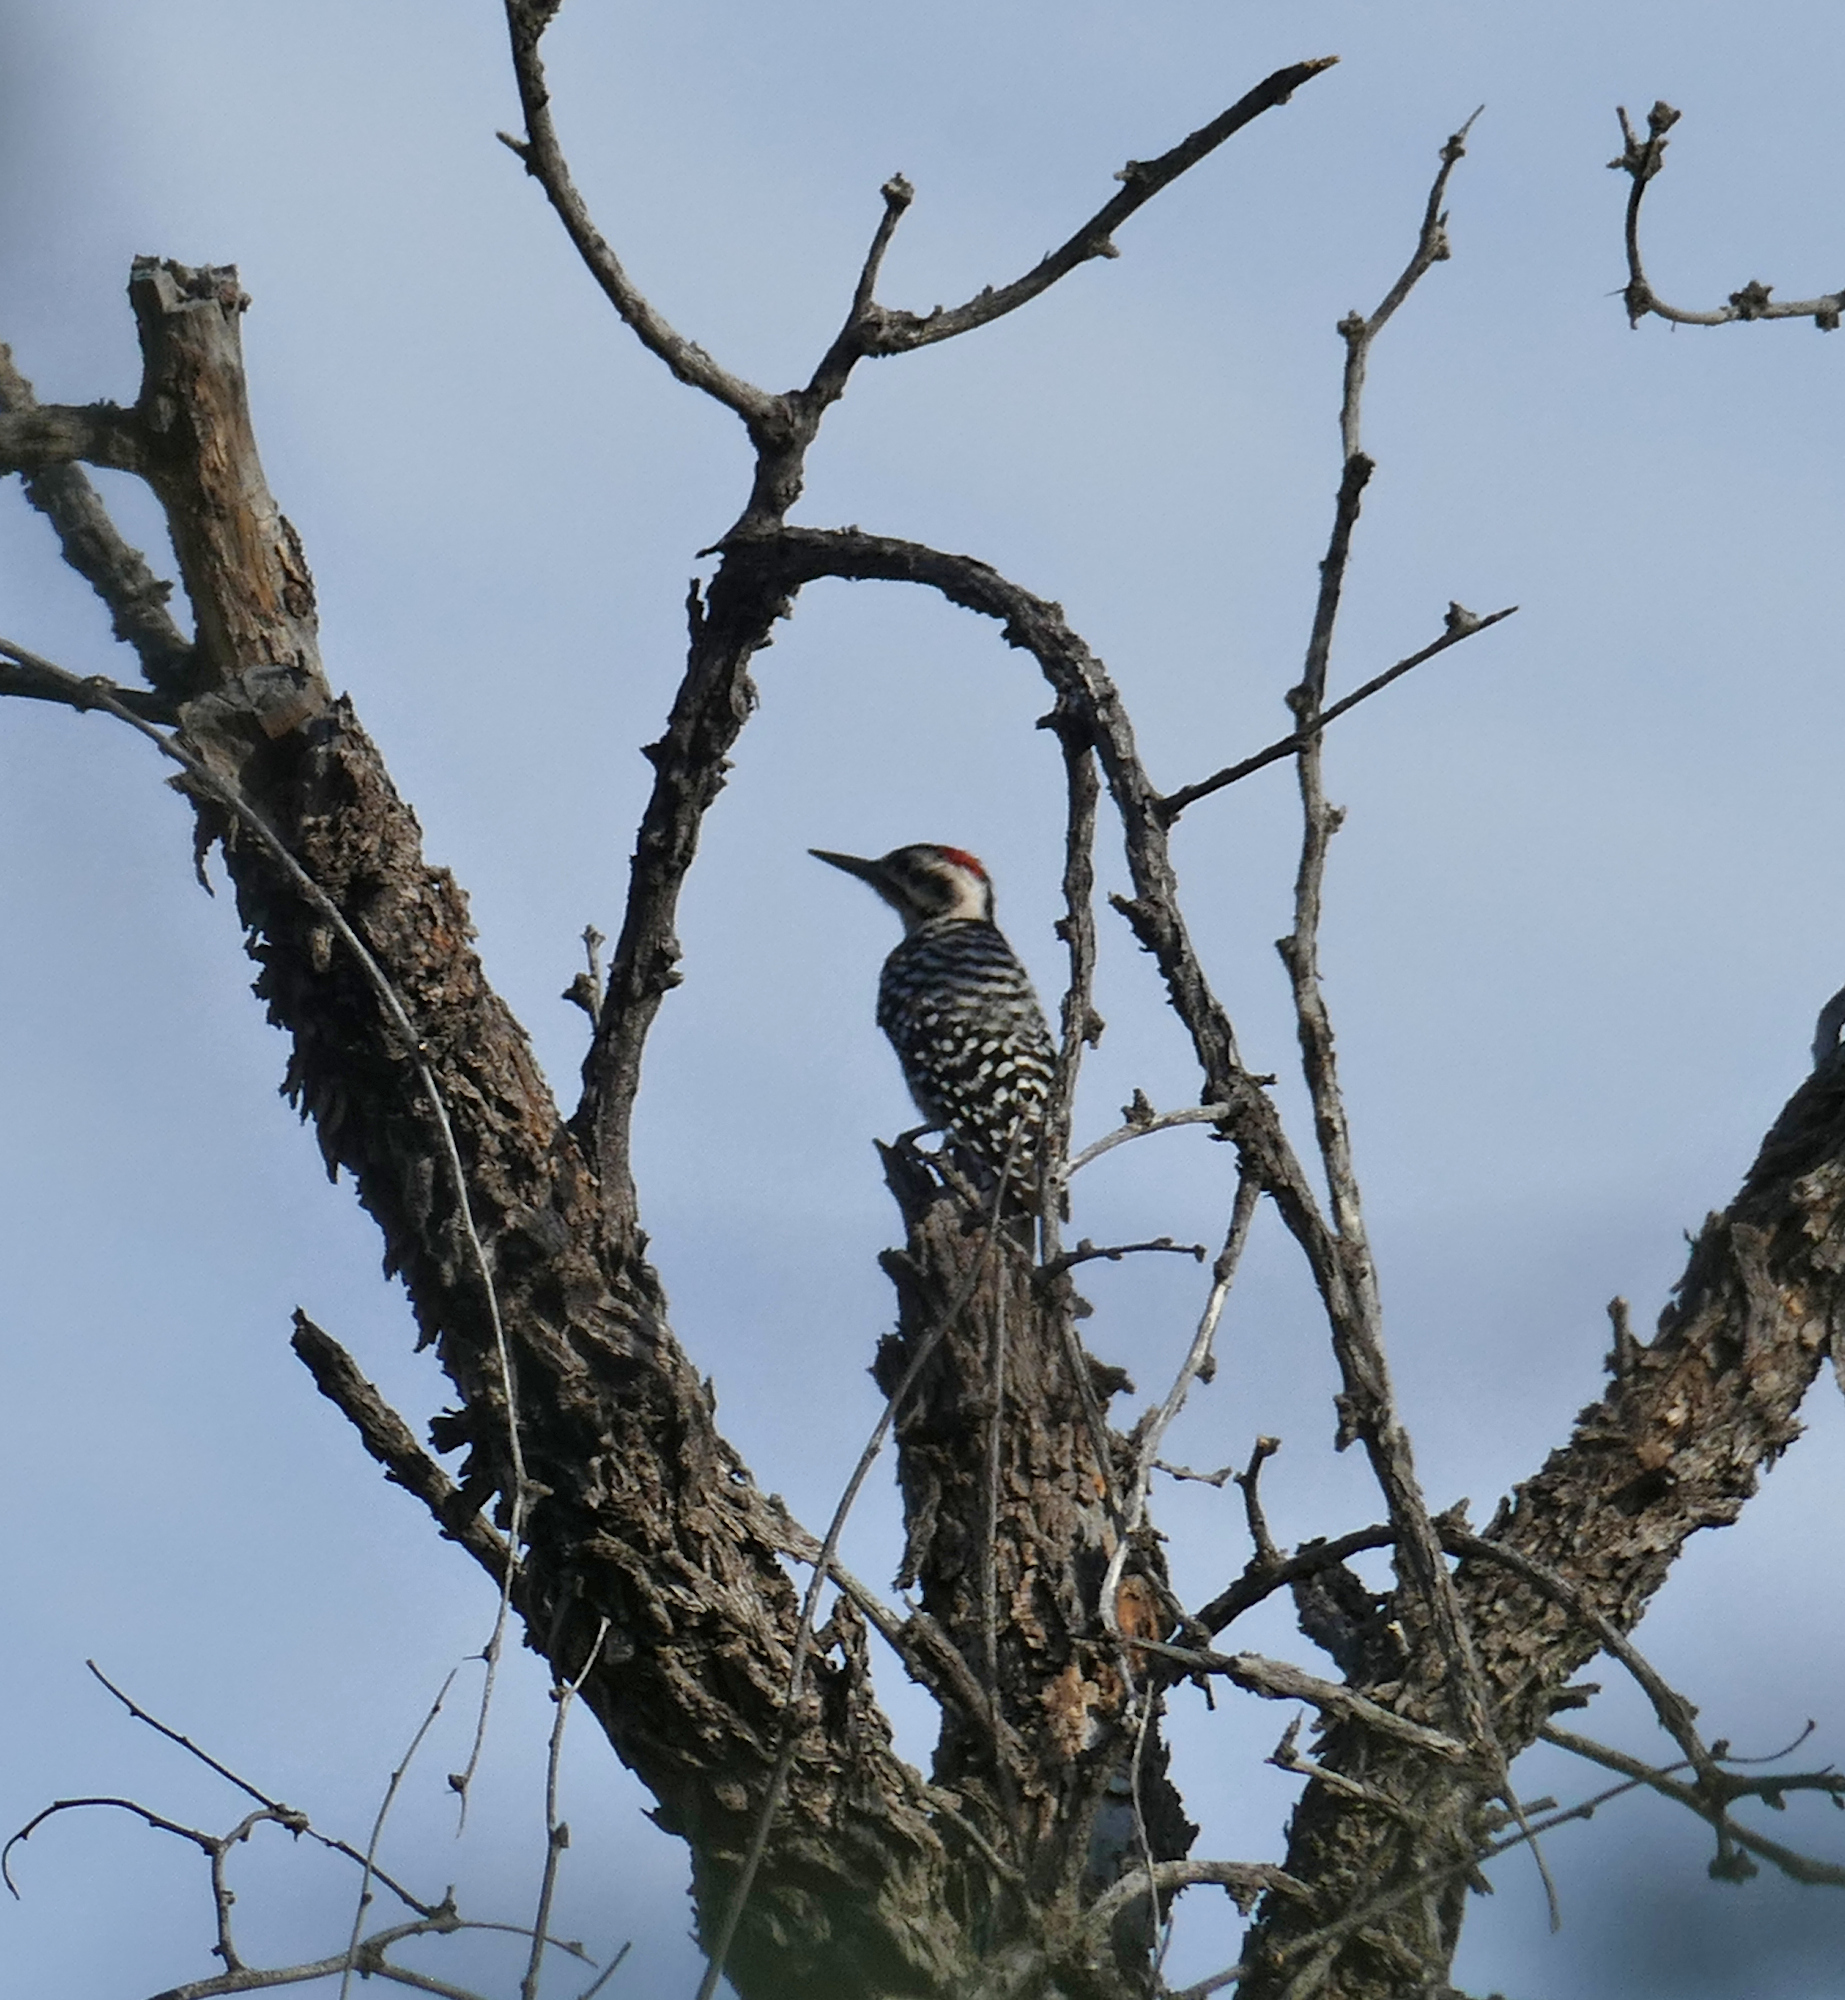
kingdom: Animalia
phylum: Chordata
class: Aves
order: Piciformes
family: Picidae
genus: Dryobates
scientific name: Dryobates scalaris
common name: Ladder-backed woodpecker
